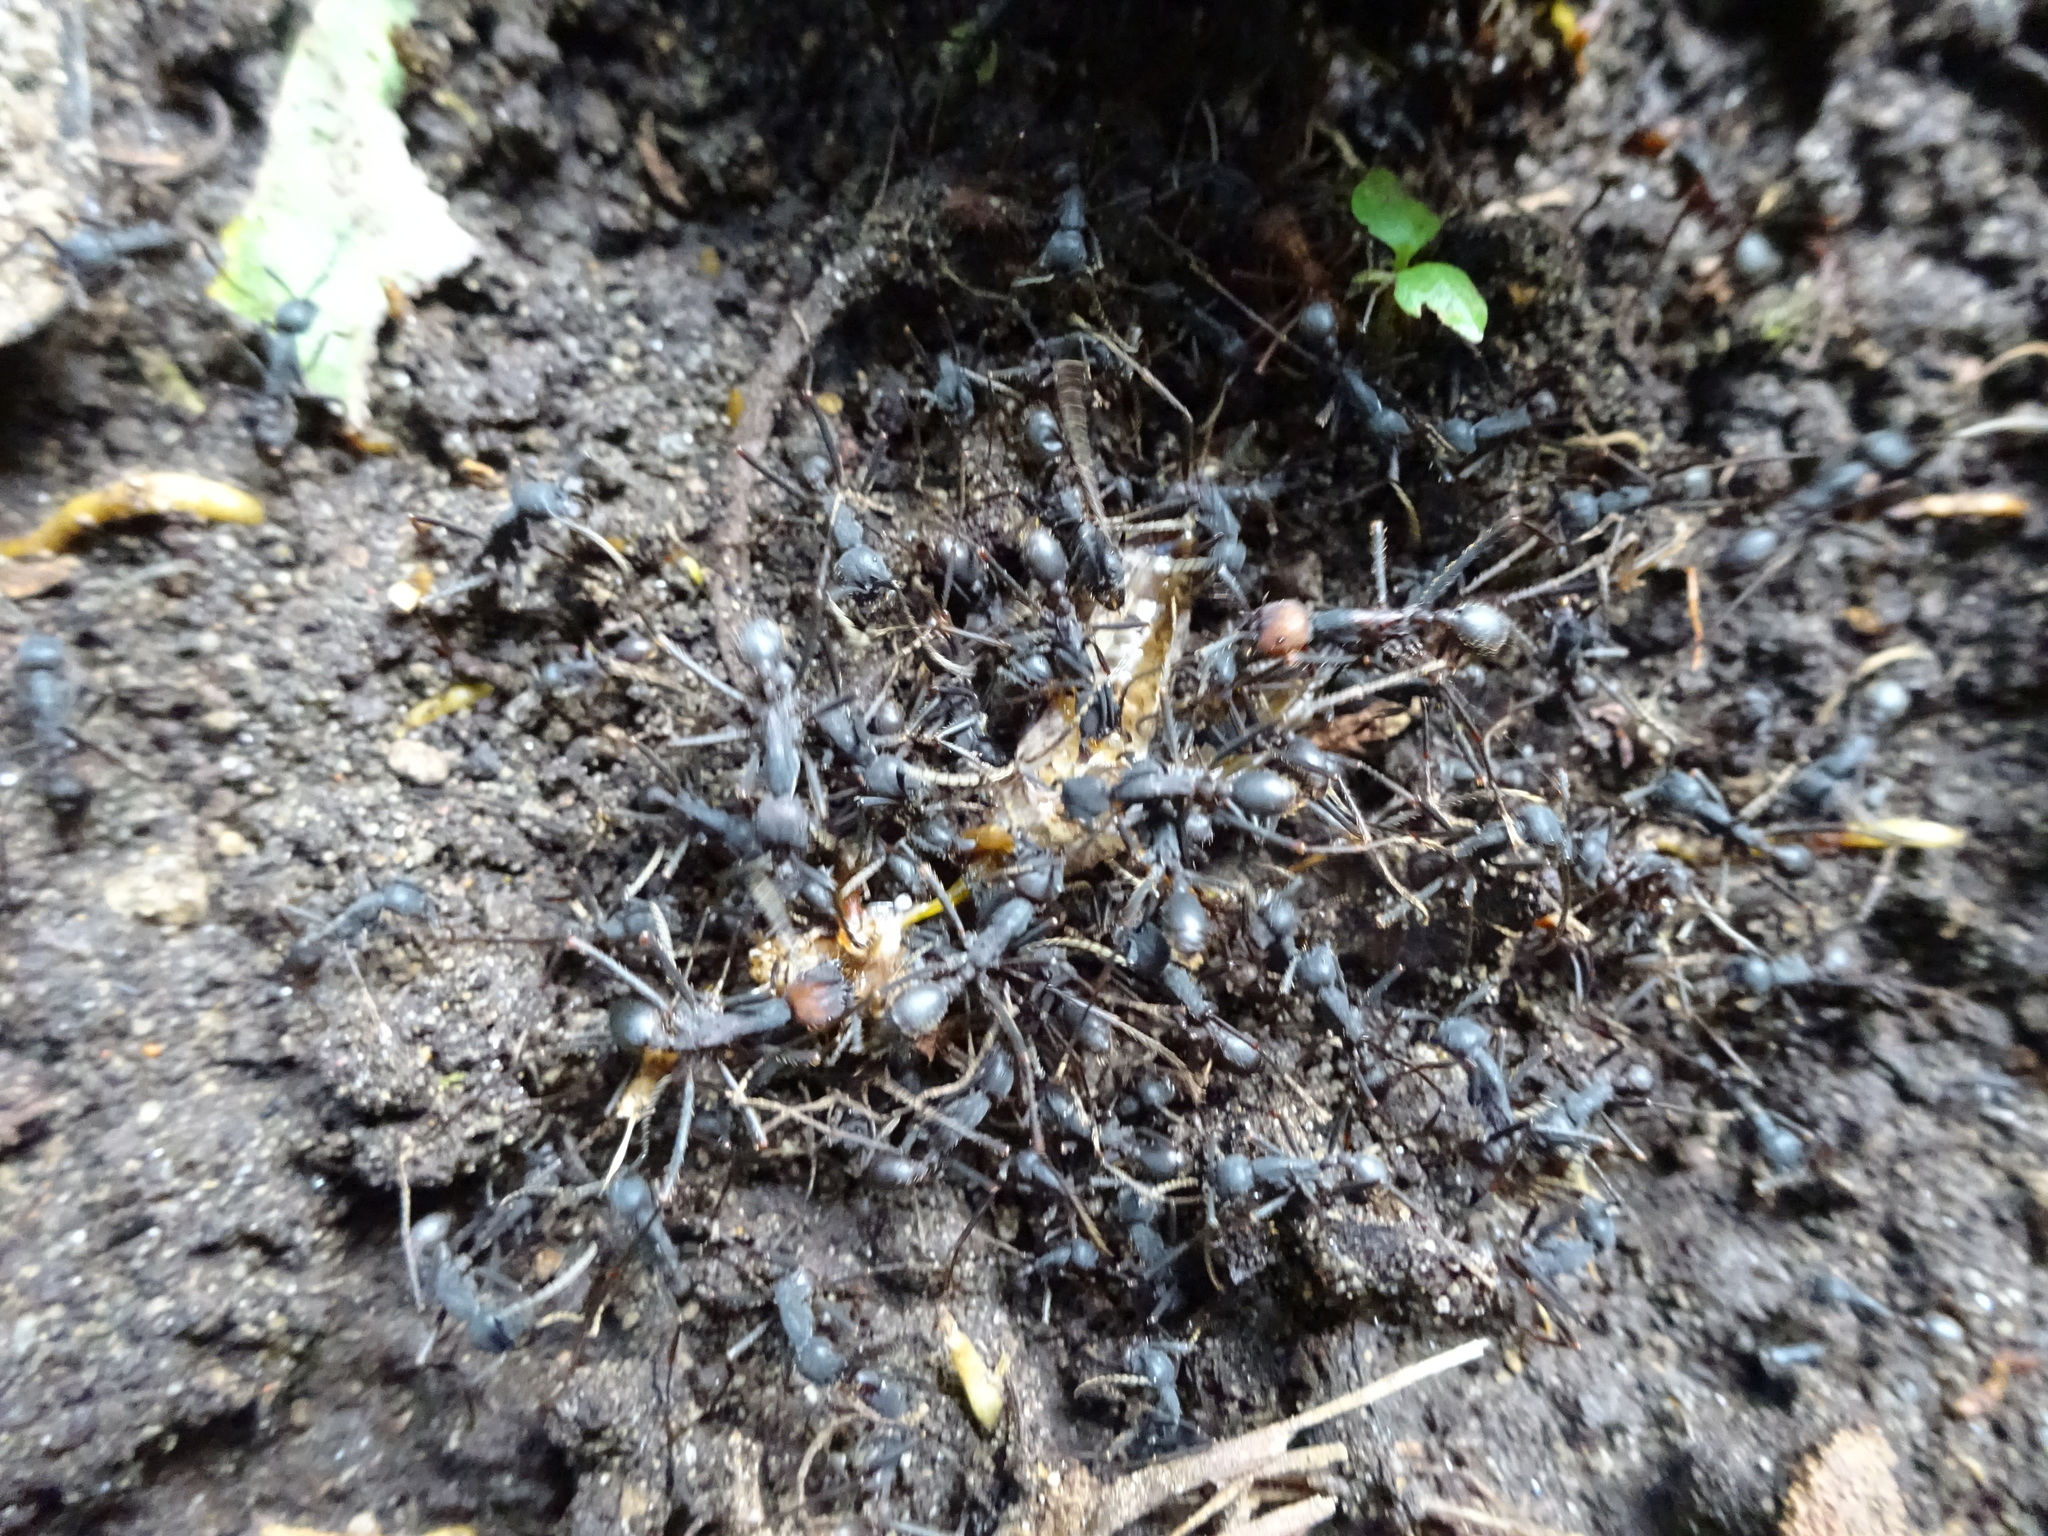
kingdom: Animalia
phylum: Arthropoda
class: Insecta
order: Hymenoptera
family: Formicidae
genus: Eciton
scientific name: Eciton burchellii
